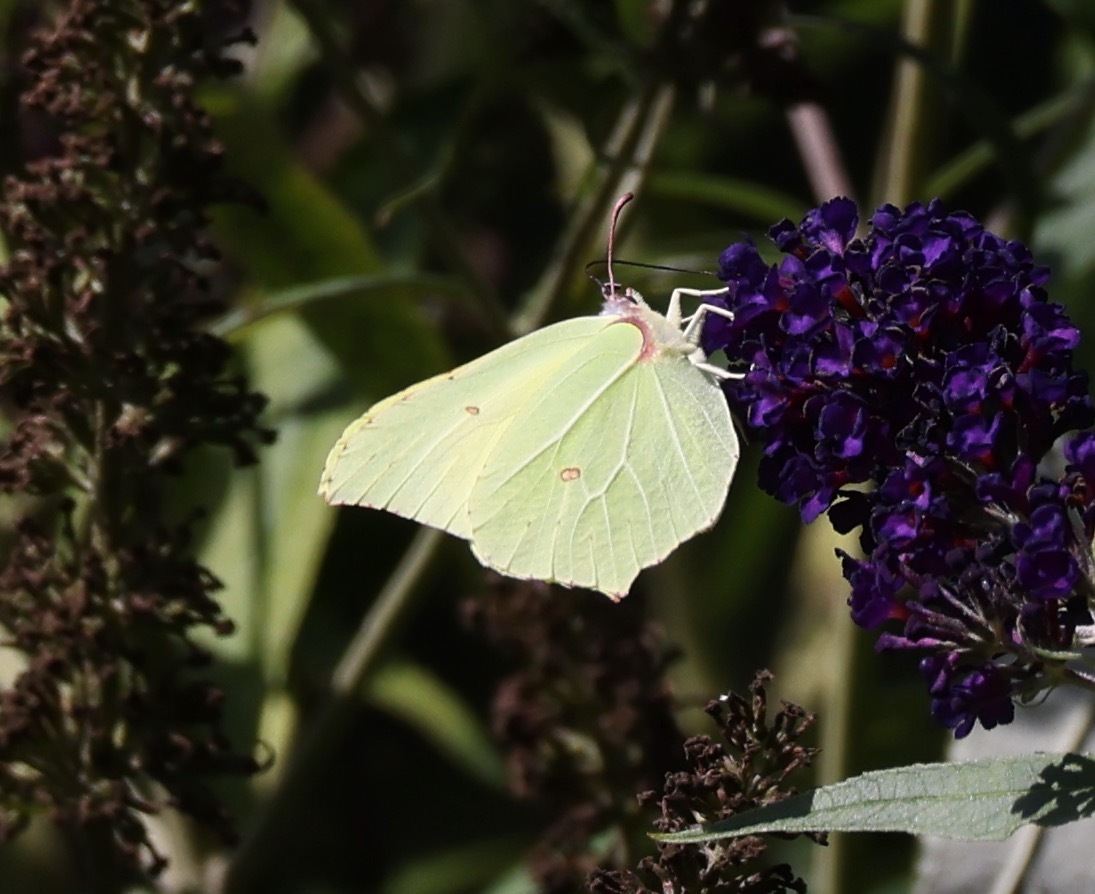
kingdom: Animalia
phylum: Arthropoda
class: Insecta
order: Lepidoptera
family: Pieridae
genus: Gonepteryx
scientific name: Gonepteryx rhamni
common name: Brimstone
